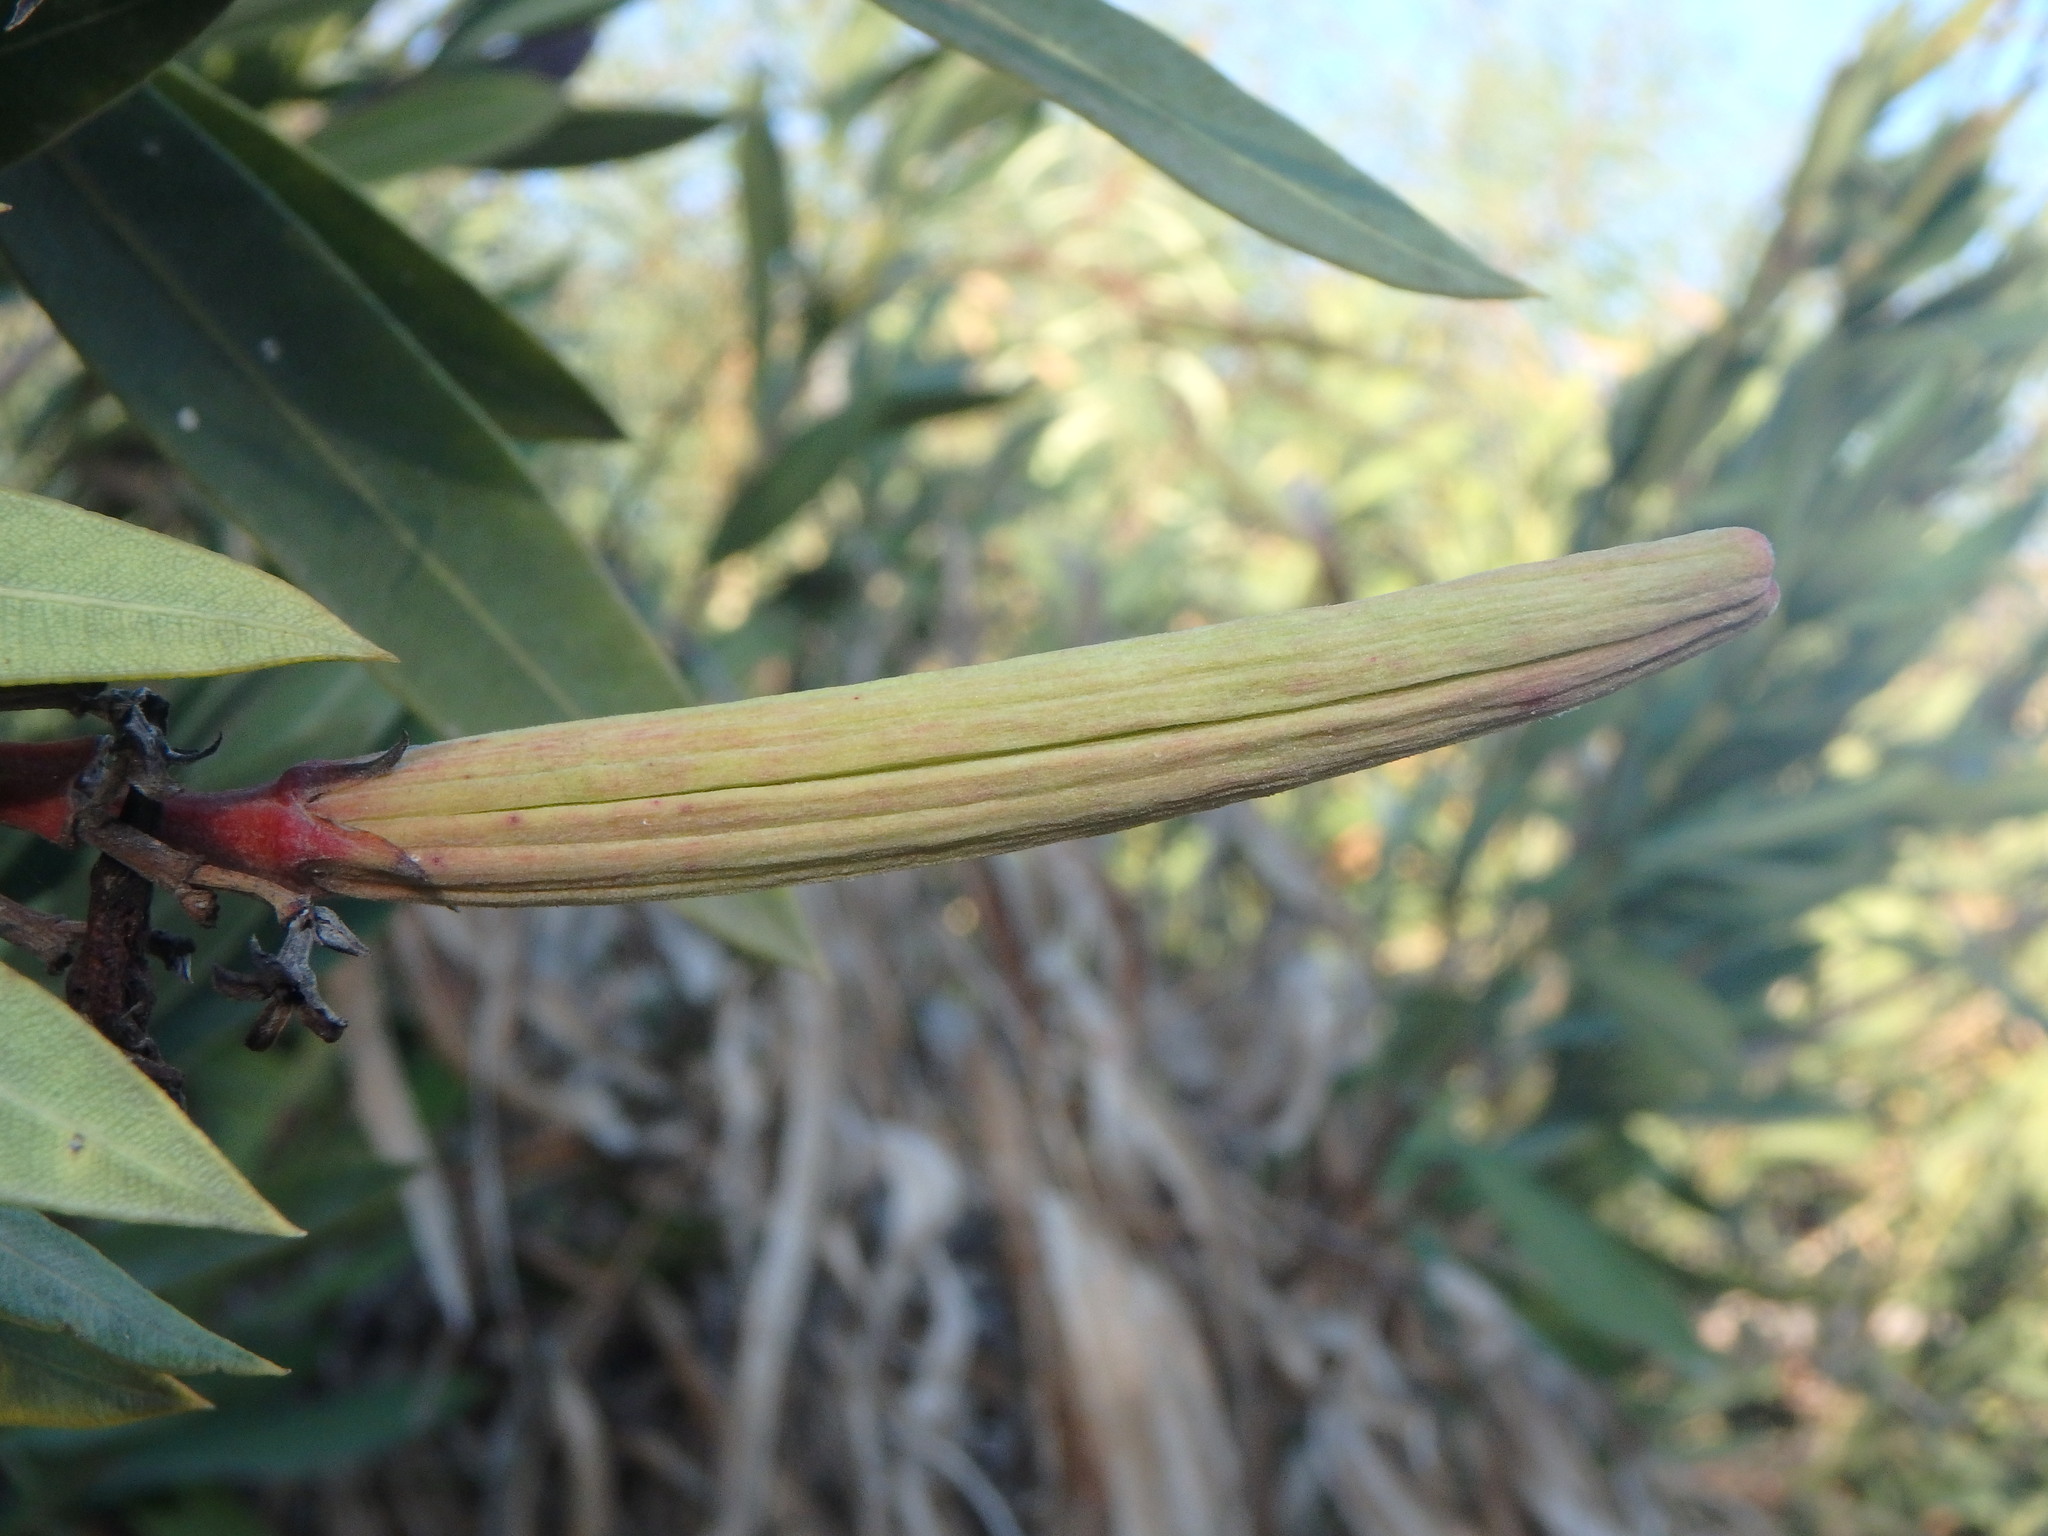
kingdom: Plantae
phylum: Tracheophyta
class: Magnoliopsida
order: Gentianales
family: Apocynaceae
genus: Nerium
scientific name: Nerium oleander
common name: Oleander
